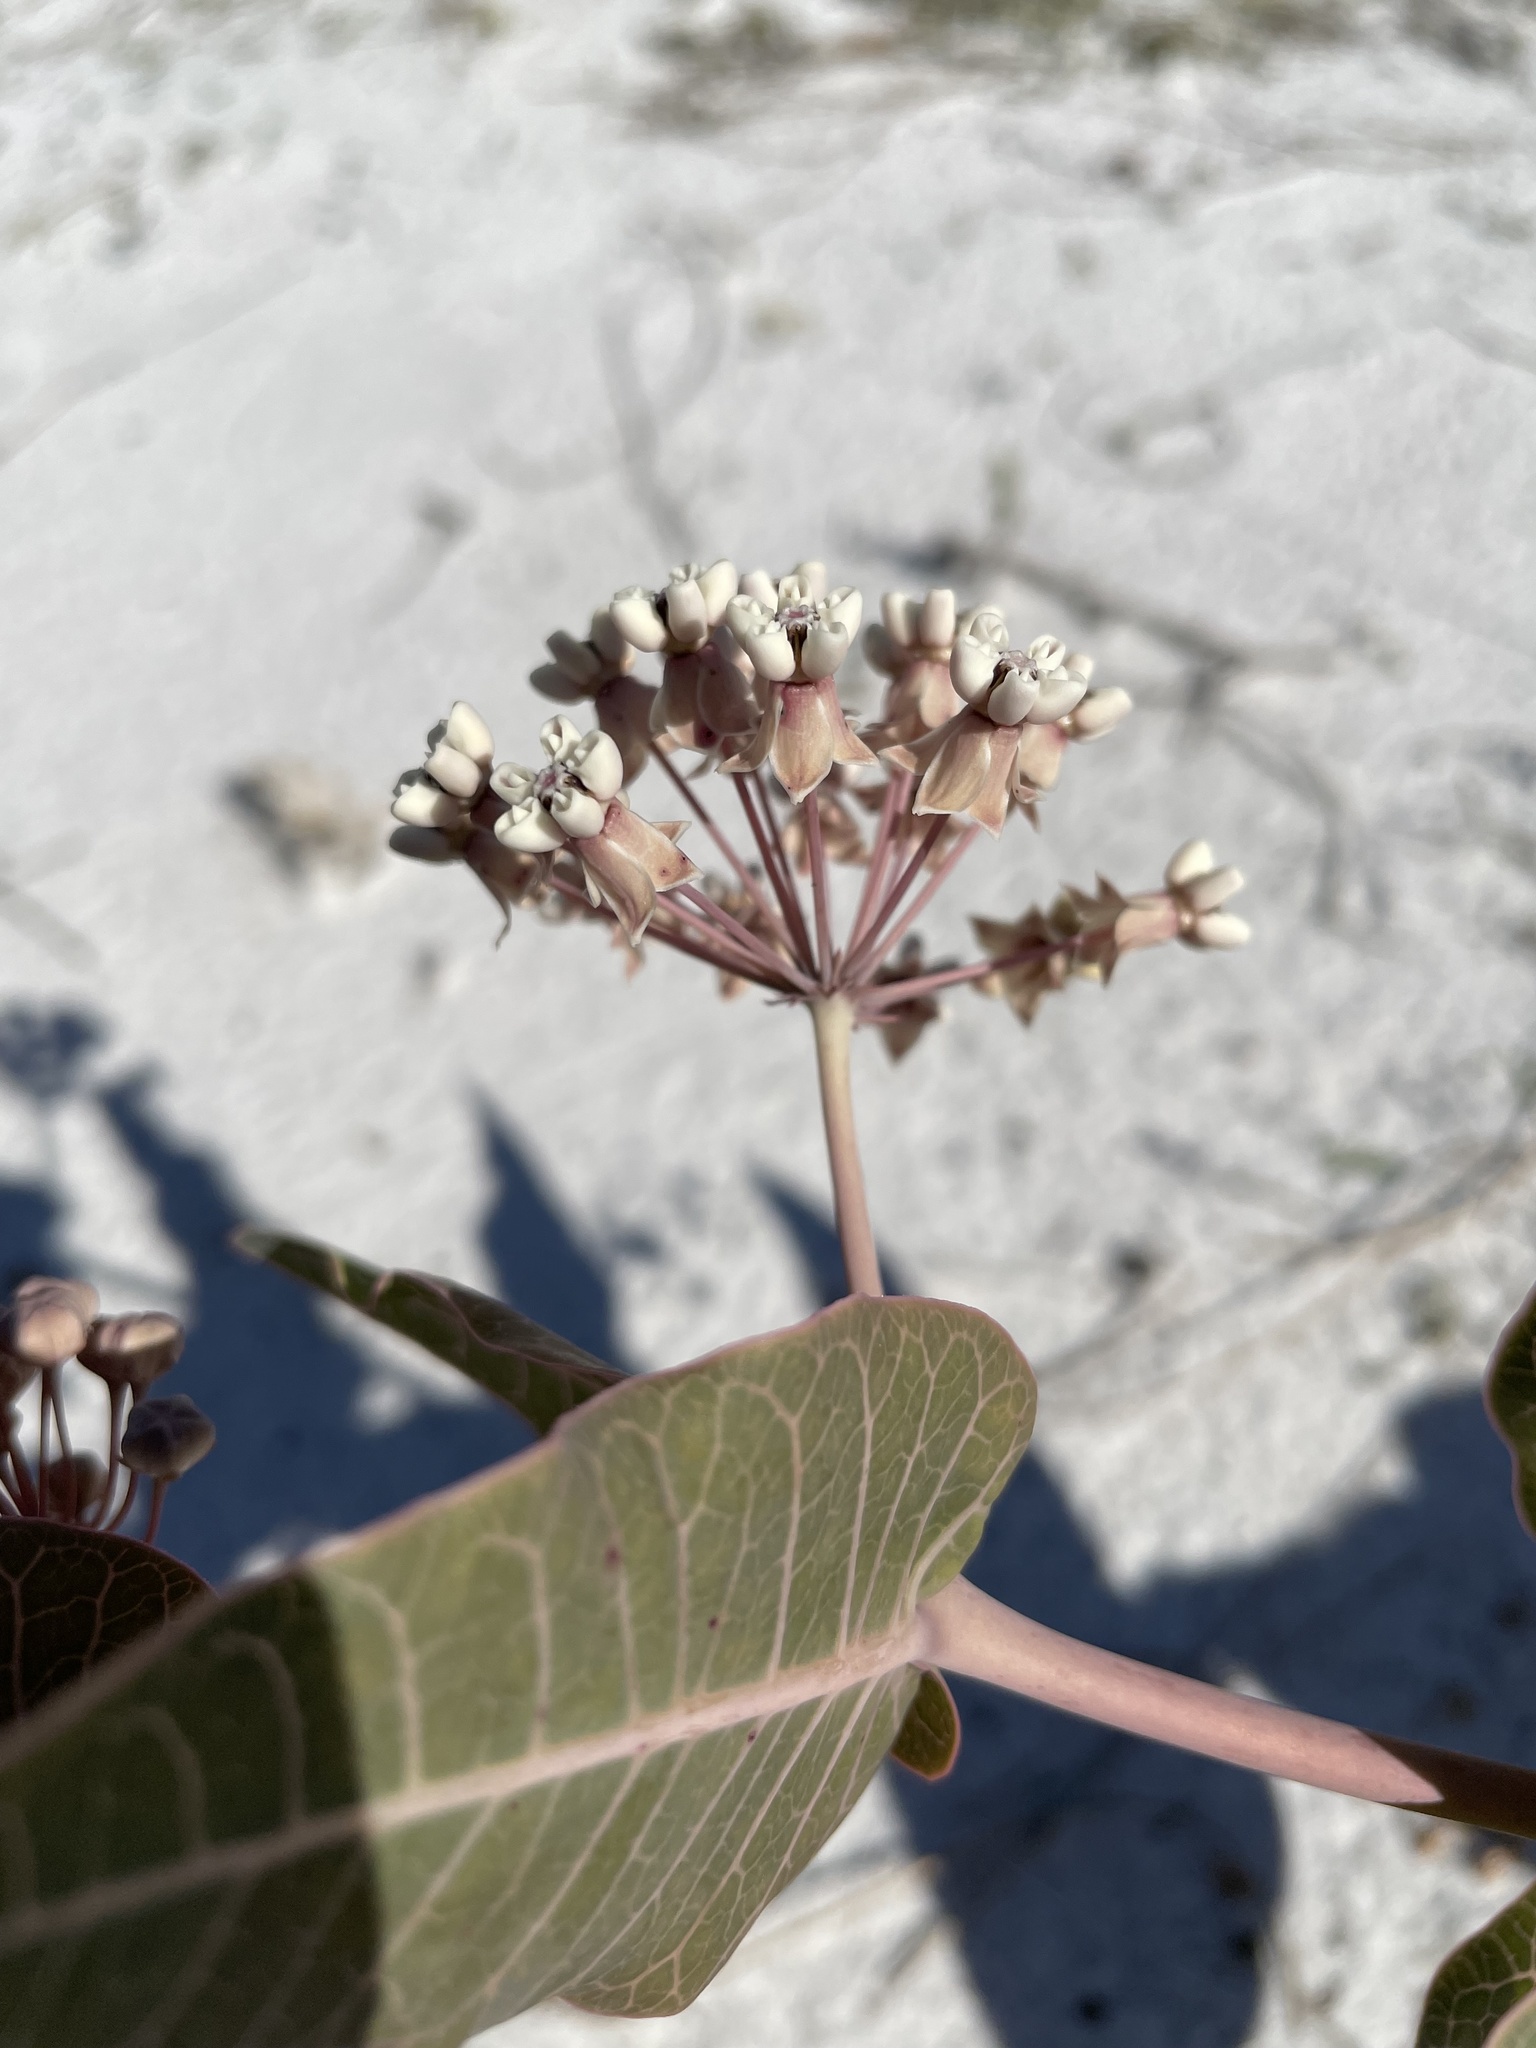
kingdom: Plantae
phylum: Tracheophyta
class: Magnoliopsida
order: Gentianales
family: Apocynaceae
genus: Asclepias
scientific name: Asclepias humistrata
